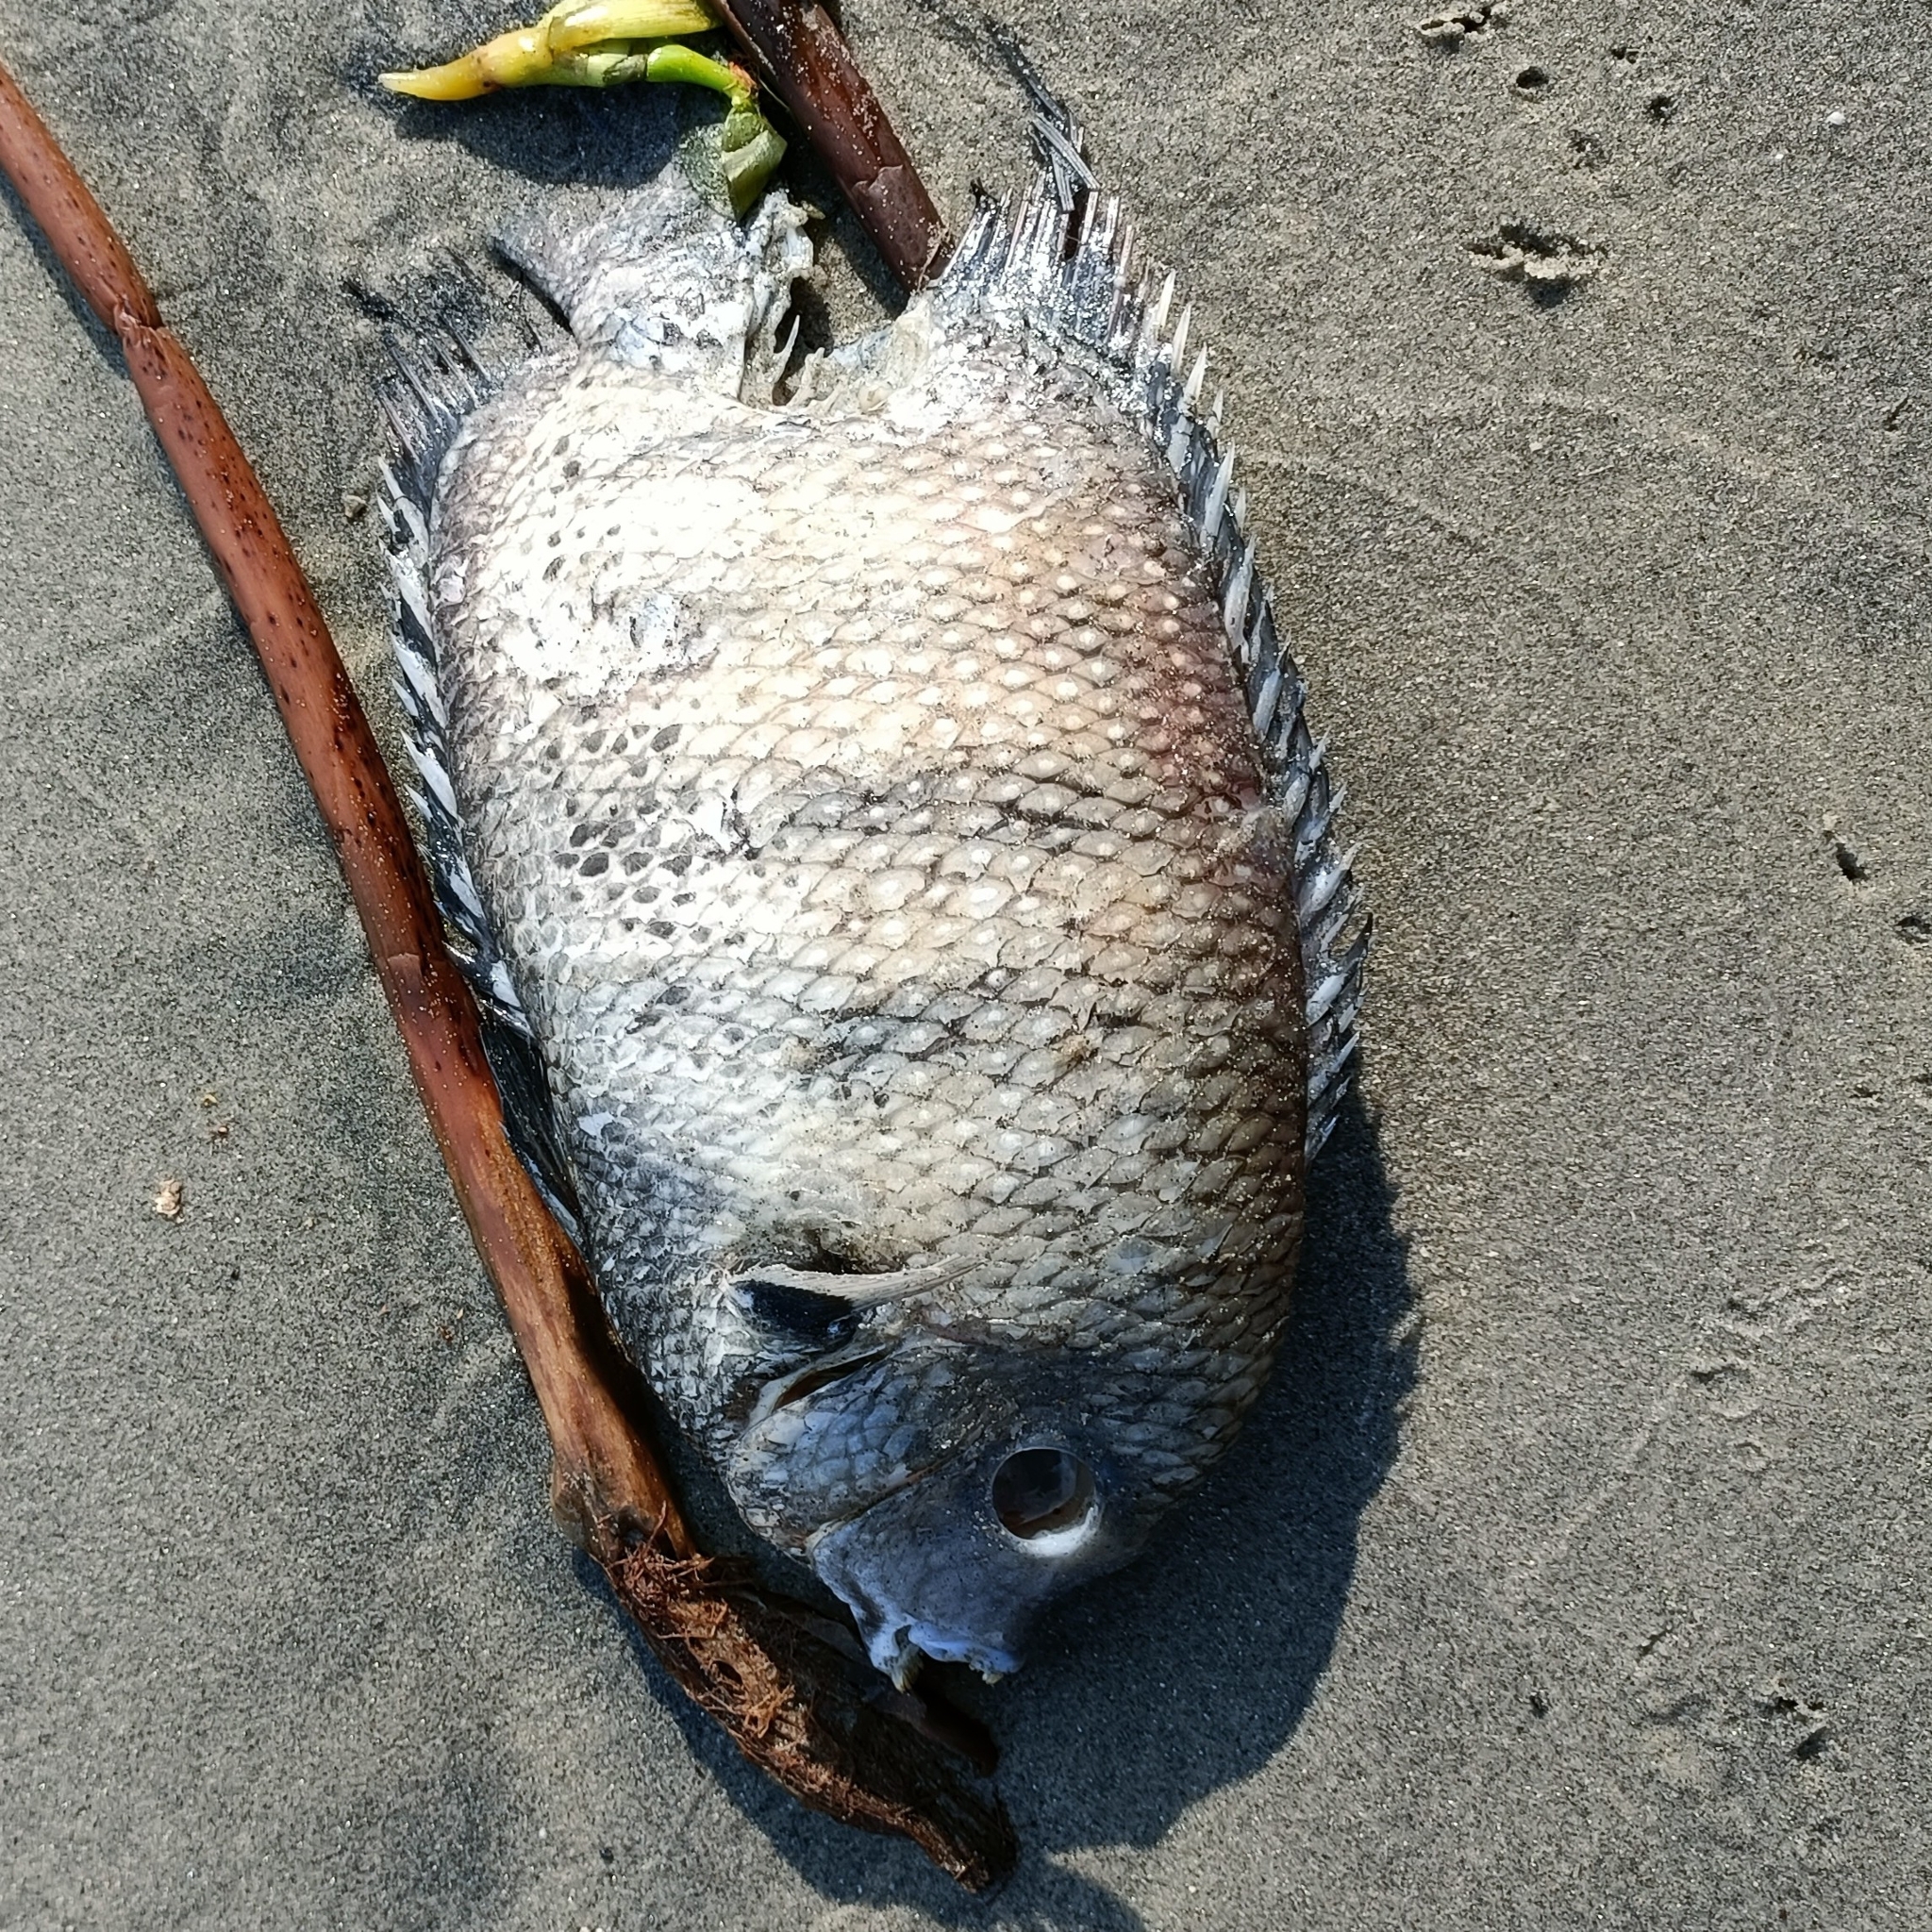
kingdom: Animalia
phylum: Chordata
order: Perciformes
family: Cichlidae
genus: Etroplus
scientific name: Etroplus suratensis
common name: Green chromide
